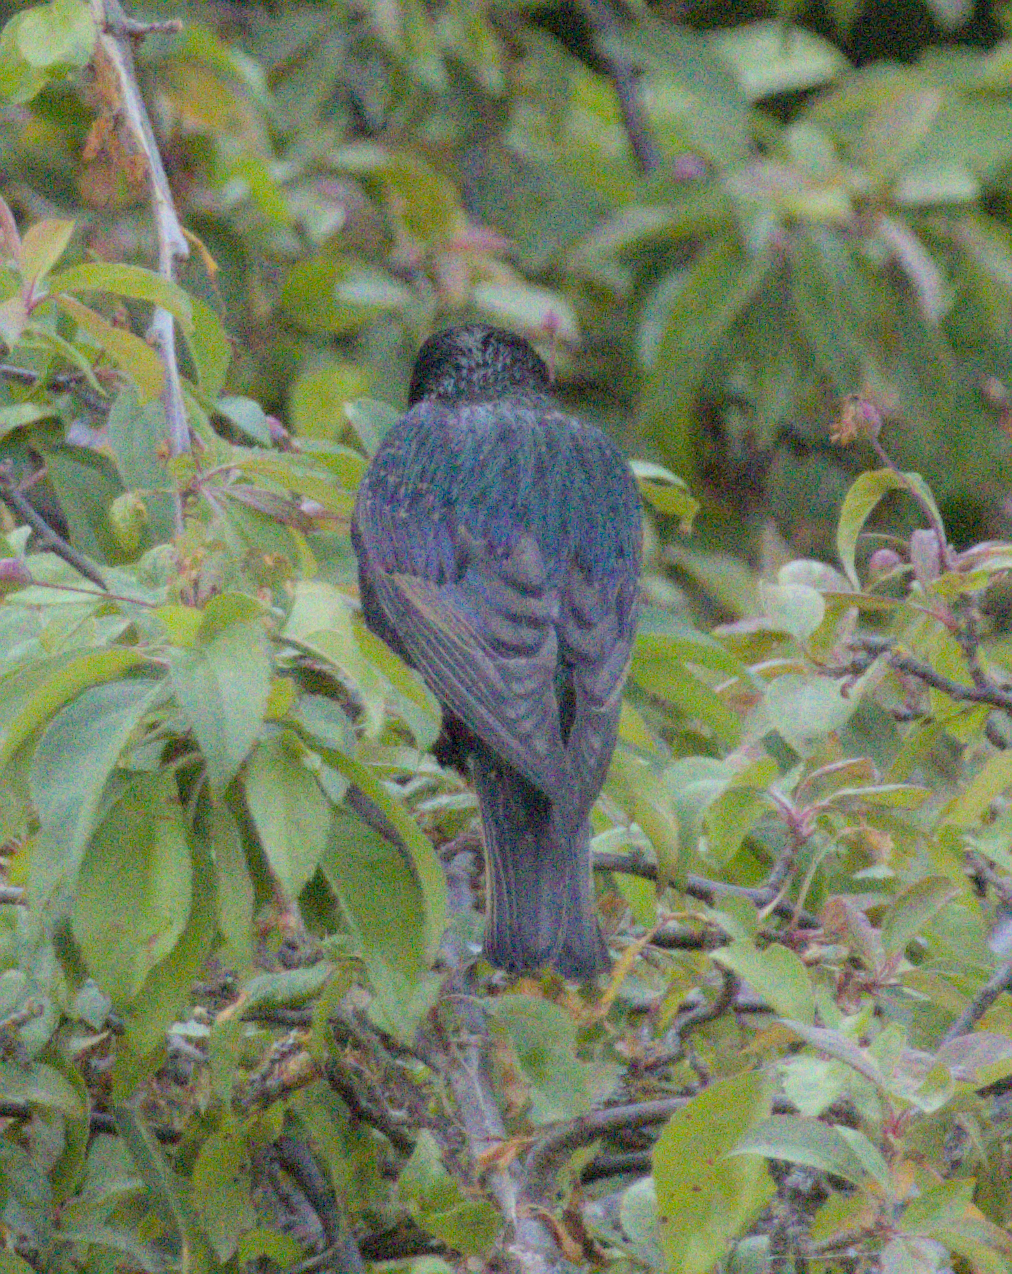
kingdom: Animalia
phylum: Chordata
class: Aves
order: Passeriformes
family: Sturnidae
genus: Sturnus
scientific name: Sturnus vulgaris
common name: Common starling
